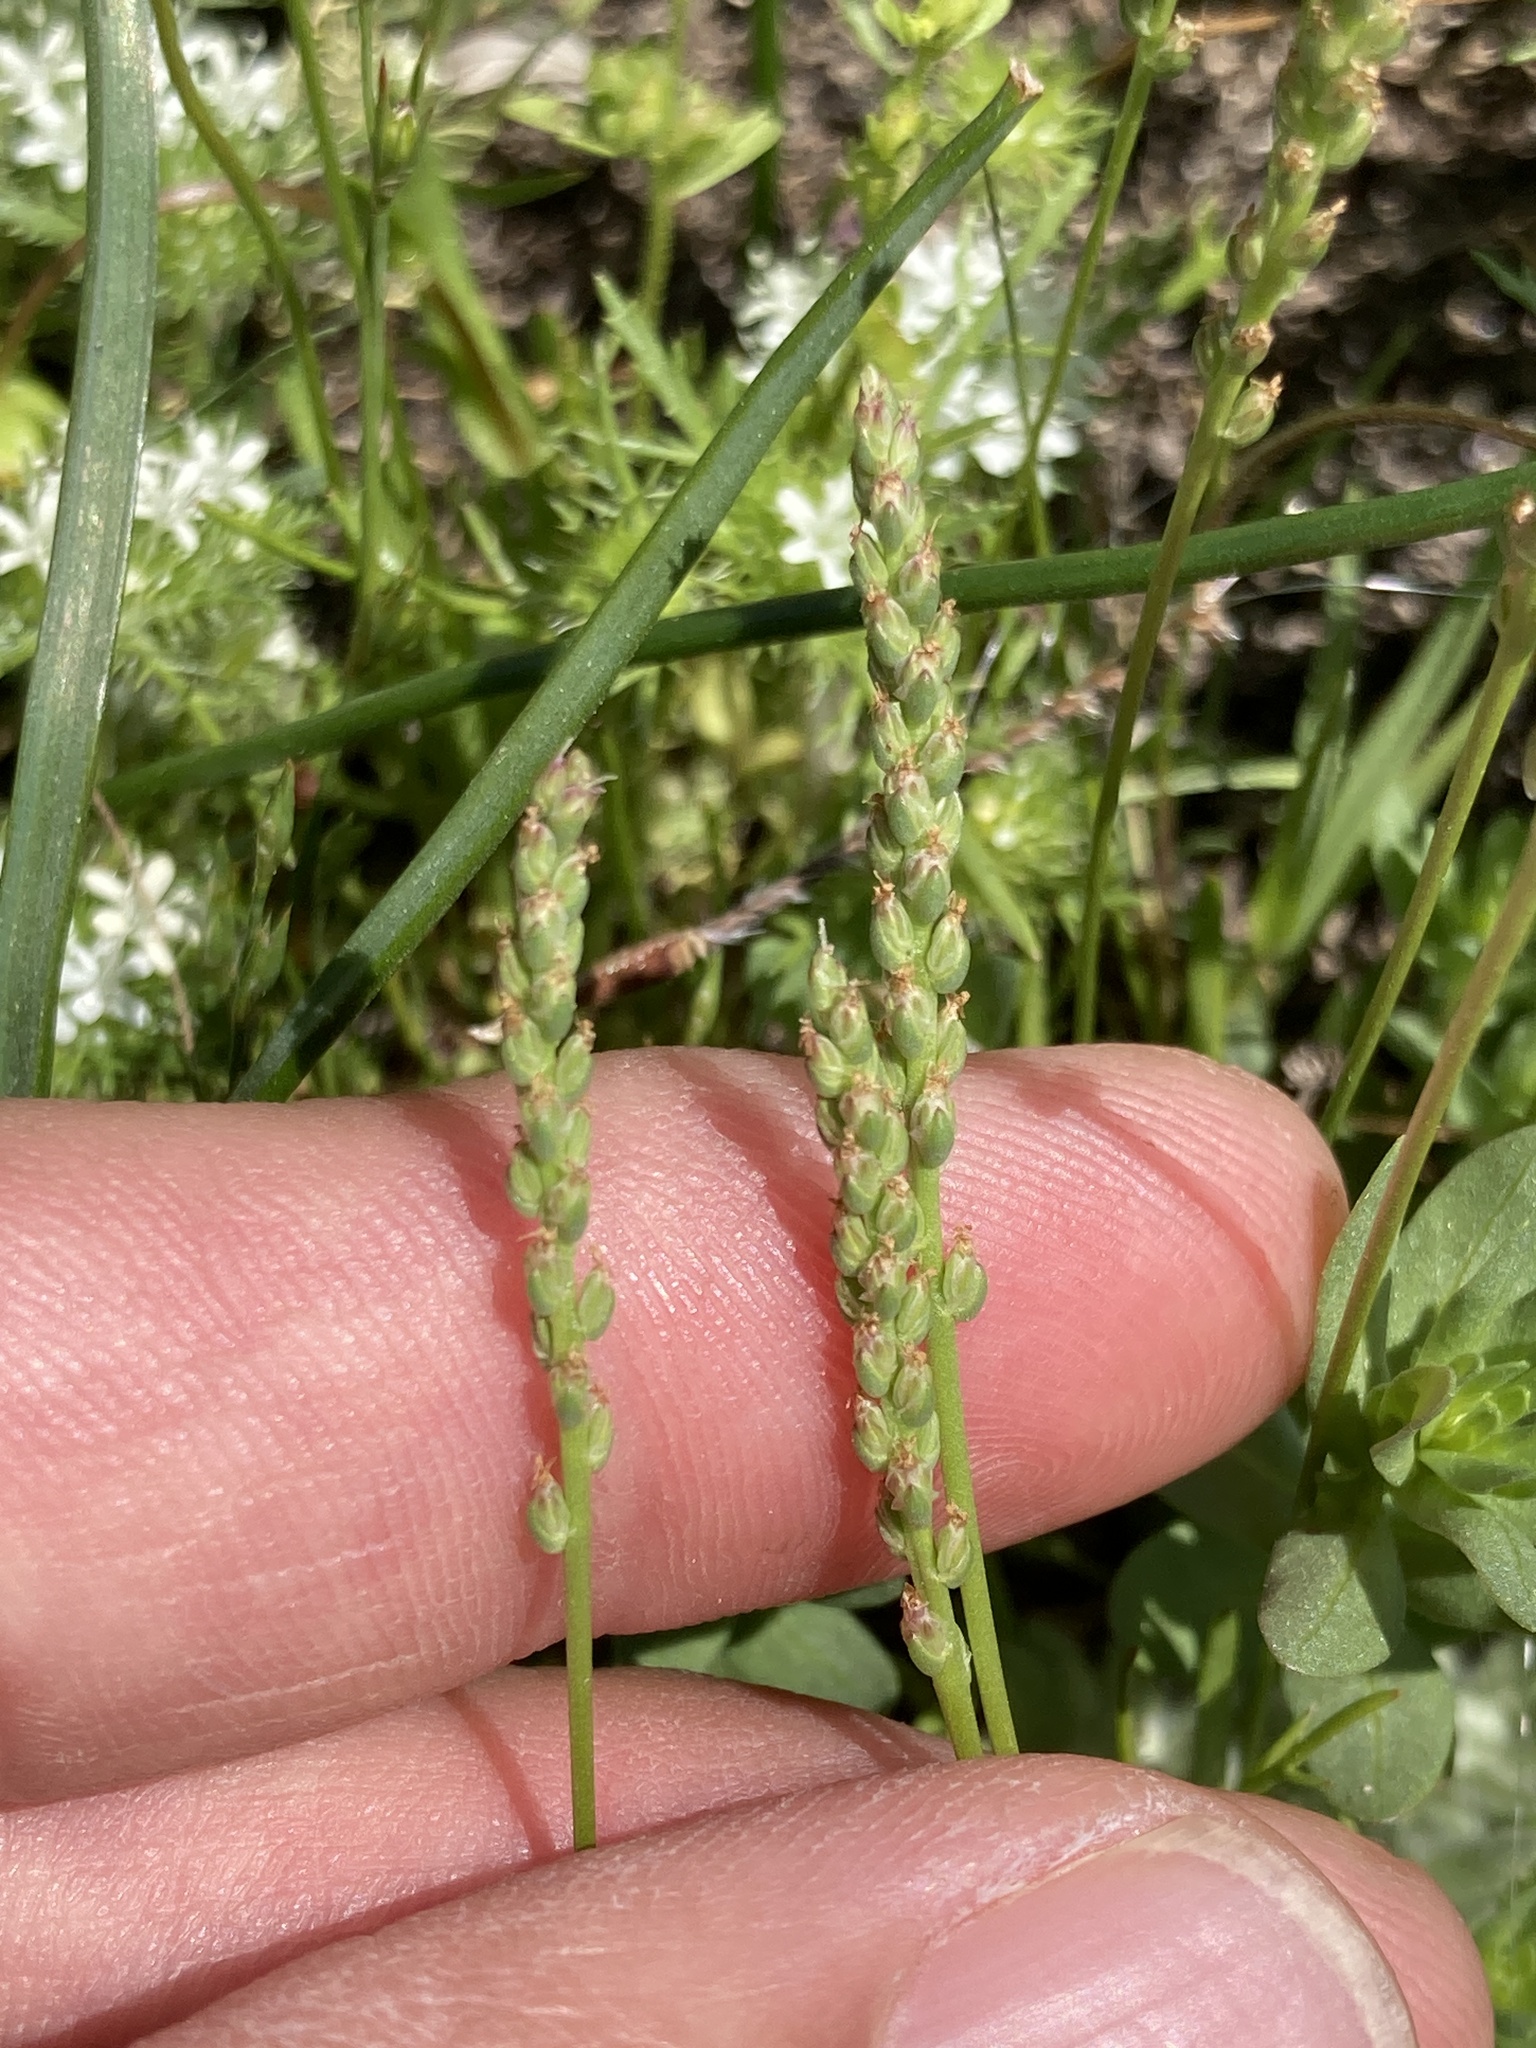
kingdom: Plantae
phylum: Tracheophyta
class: Magnoliopsida
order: Lamiales
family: Plantaginaceae
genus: Plantago
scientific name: Plantago elongata
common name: Linear-leaved plantain
